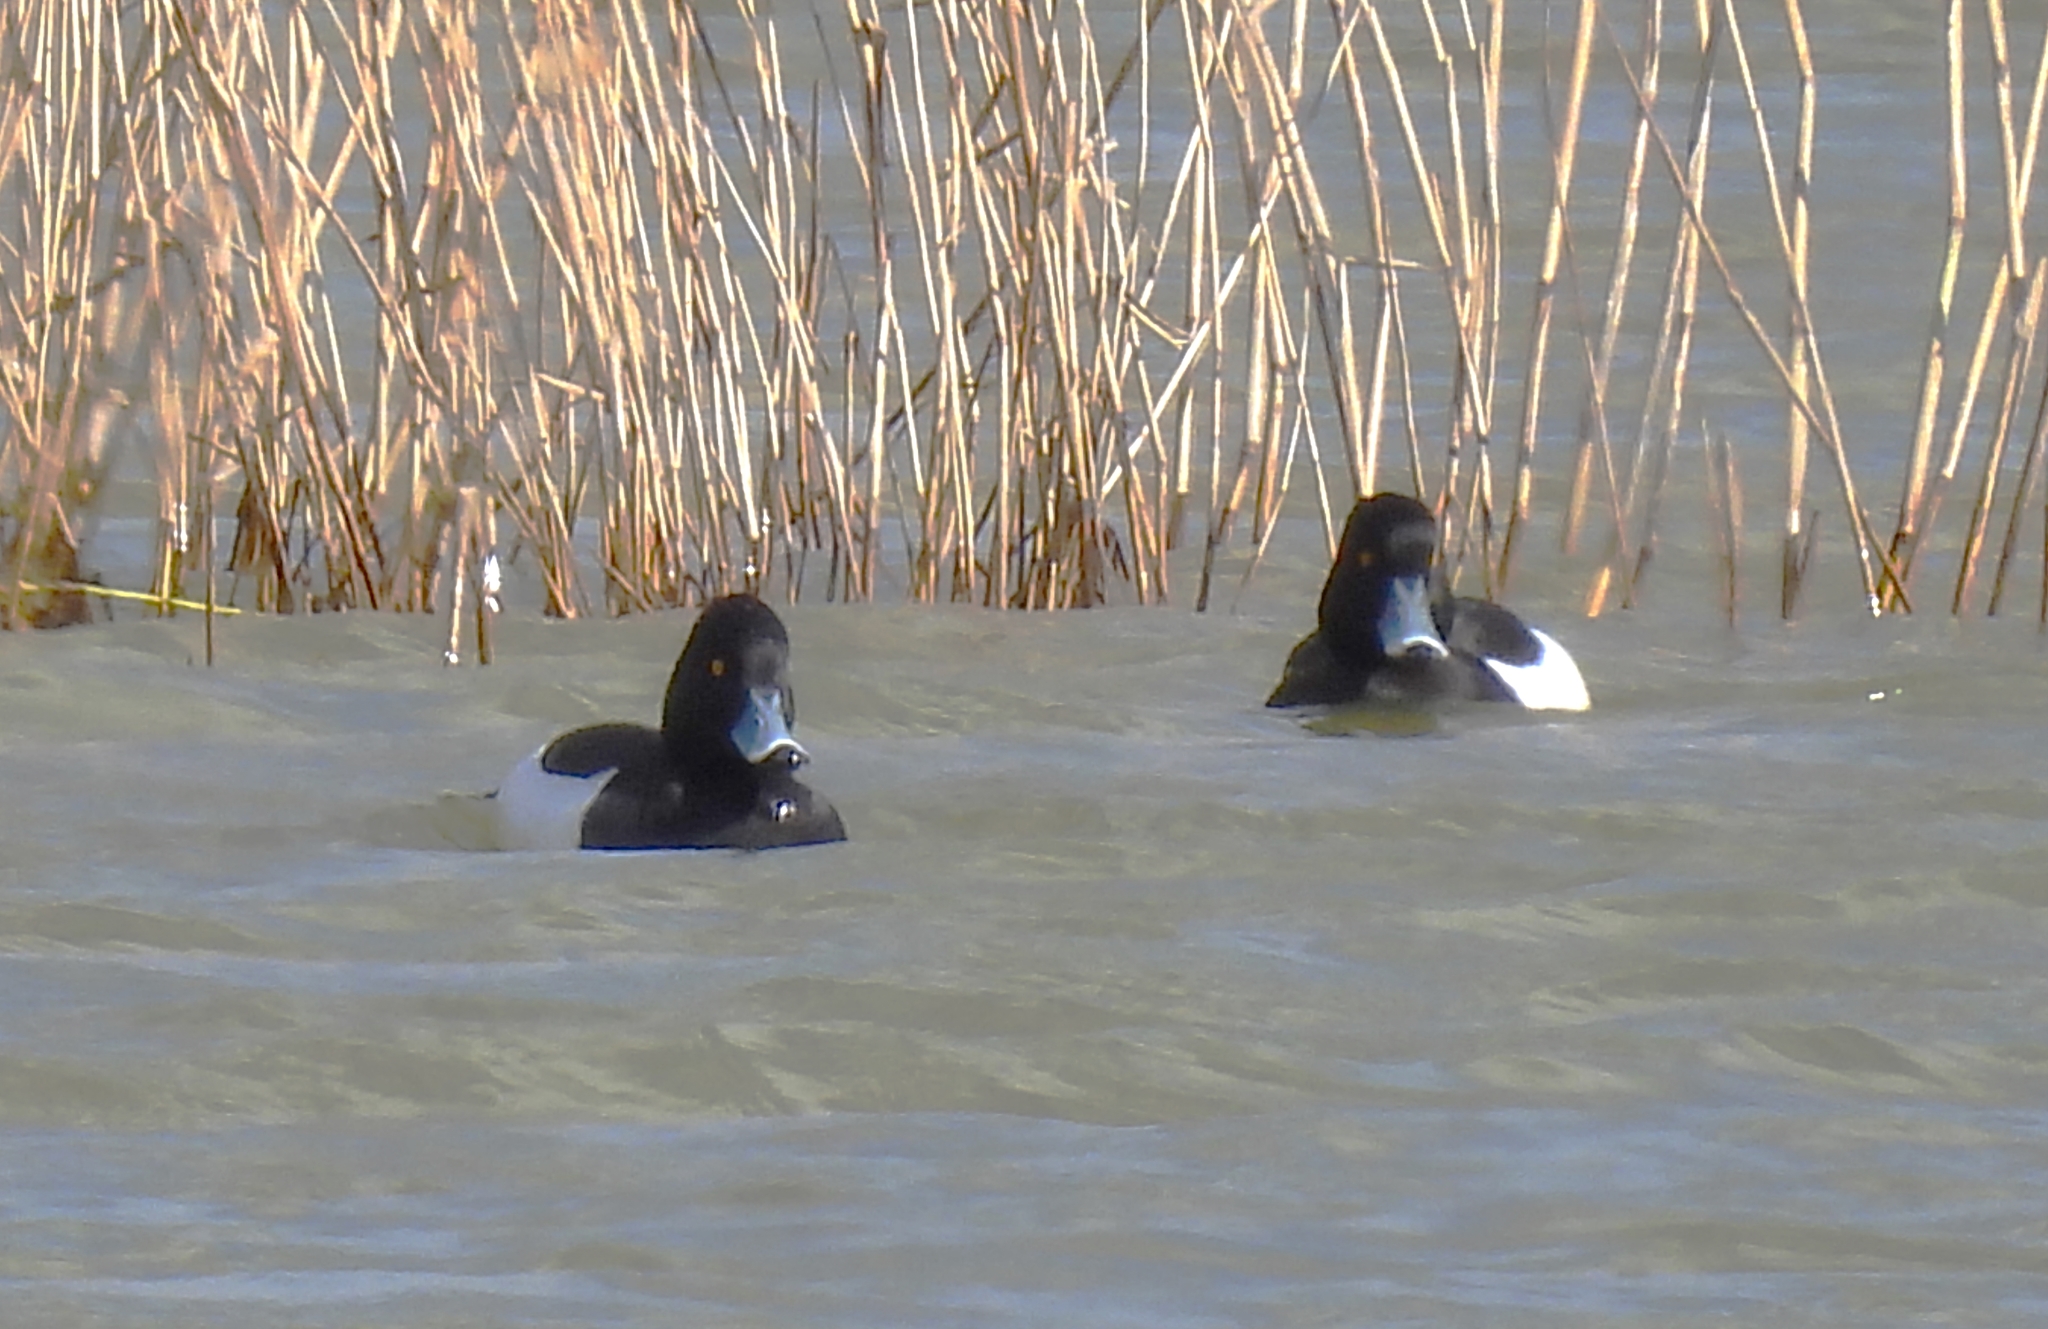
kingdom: Animalia
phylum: Chordata
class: Aves
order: Anseriformes
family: Anatidae
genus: Aythya
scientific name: Aythya fuligula
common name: Tufted duck
